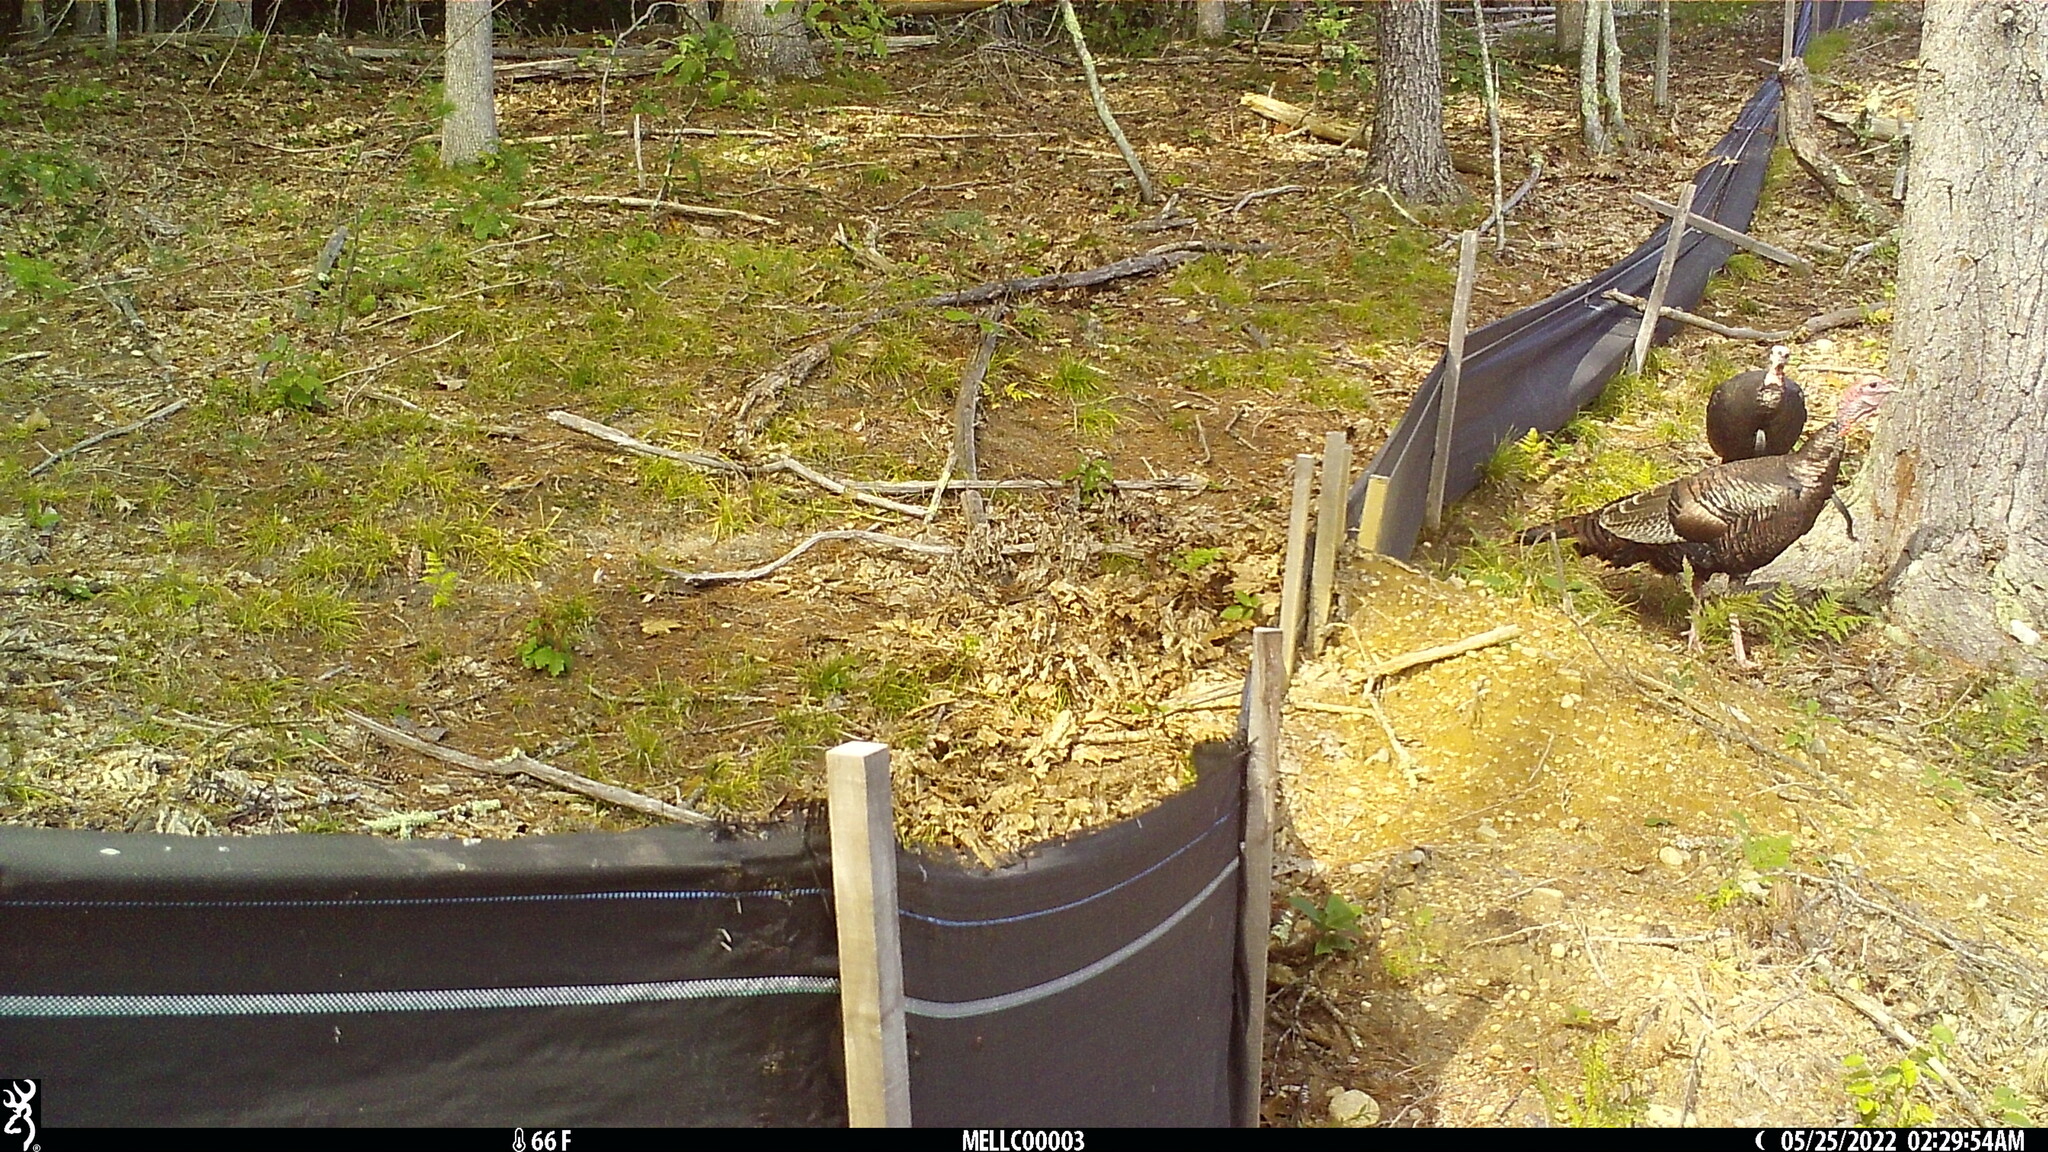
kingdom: Animalia
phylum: Chordata
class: Aves
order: Galliformes
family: Phasianidae
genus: Meleagris
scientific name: Meleagris gallopavo
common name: Wild turkey
